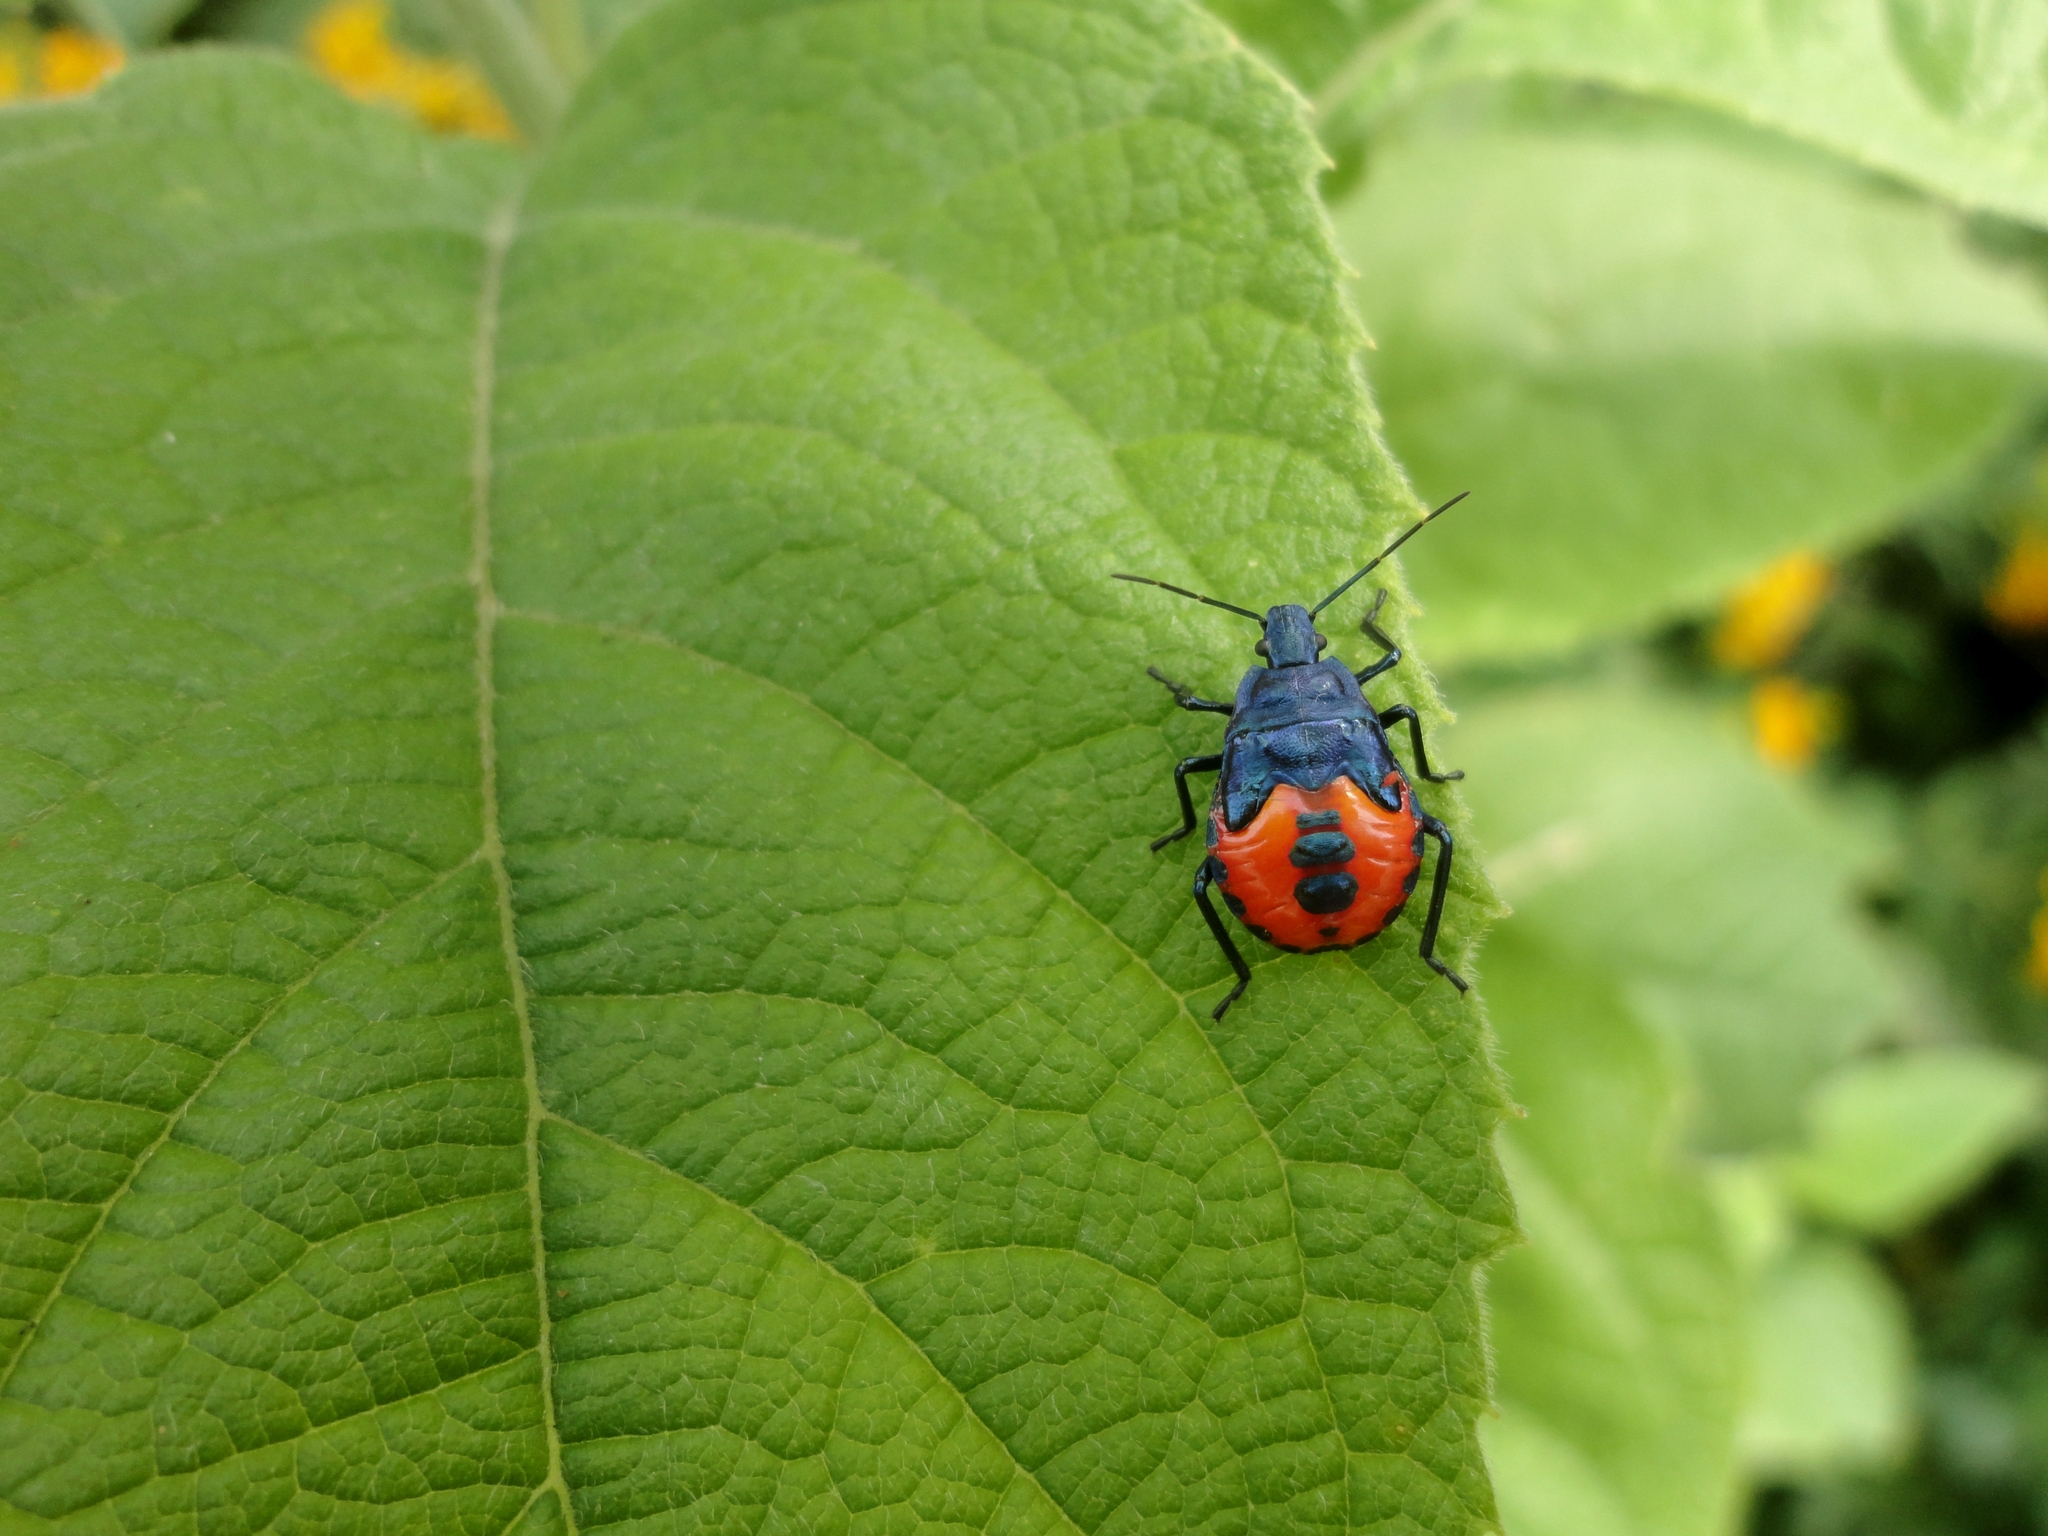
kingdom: Animalia
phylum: Arthropoda
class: Insecta
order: Hemiptera
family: Pentatomidae
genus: Euthyrhynchus
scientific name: Euthyrhynchus floridanus
